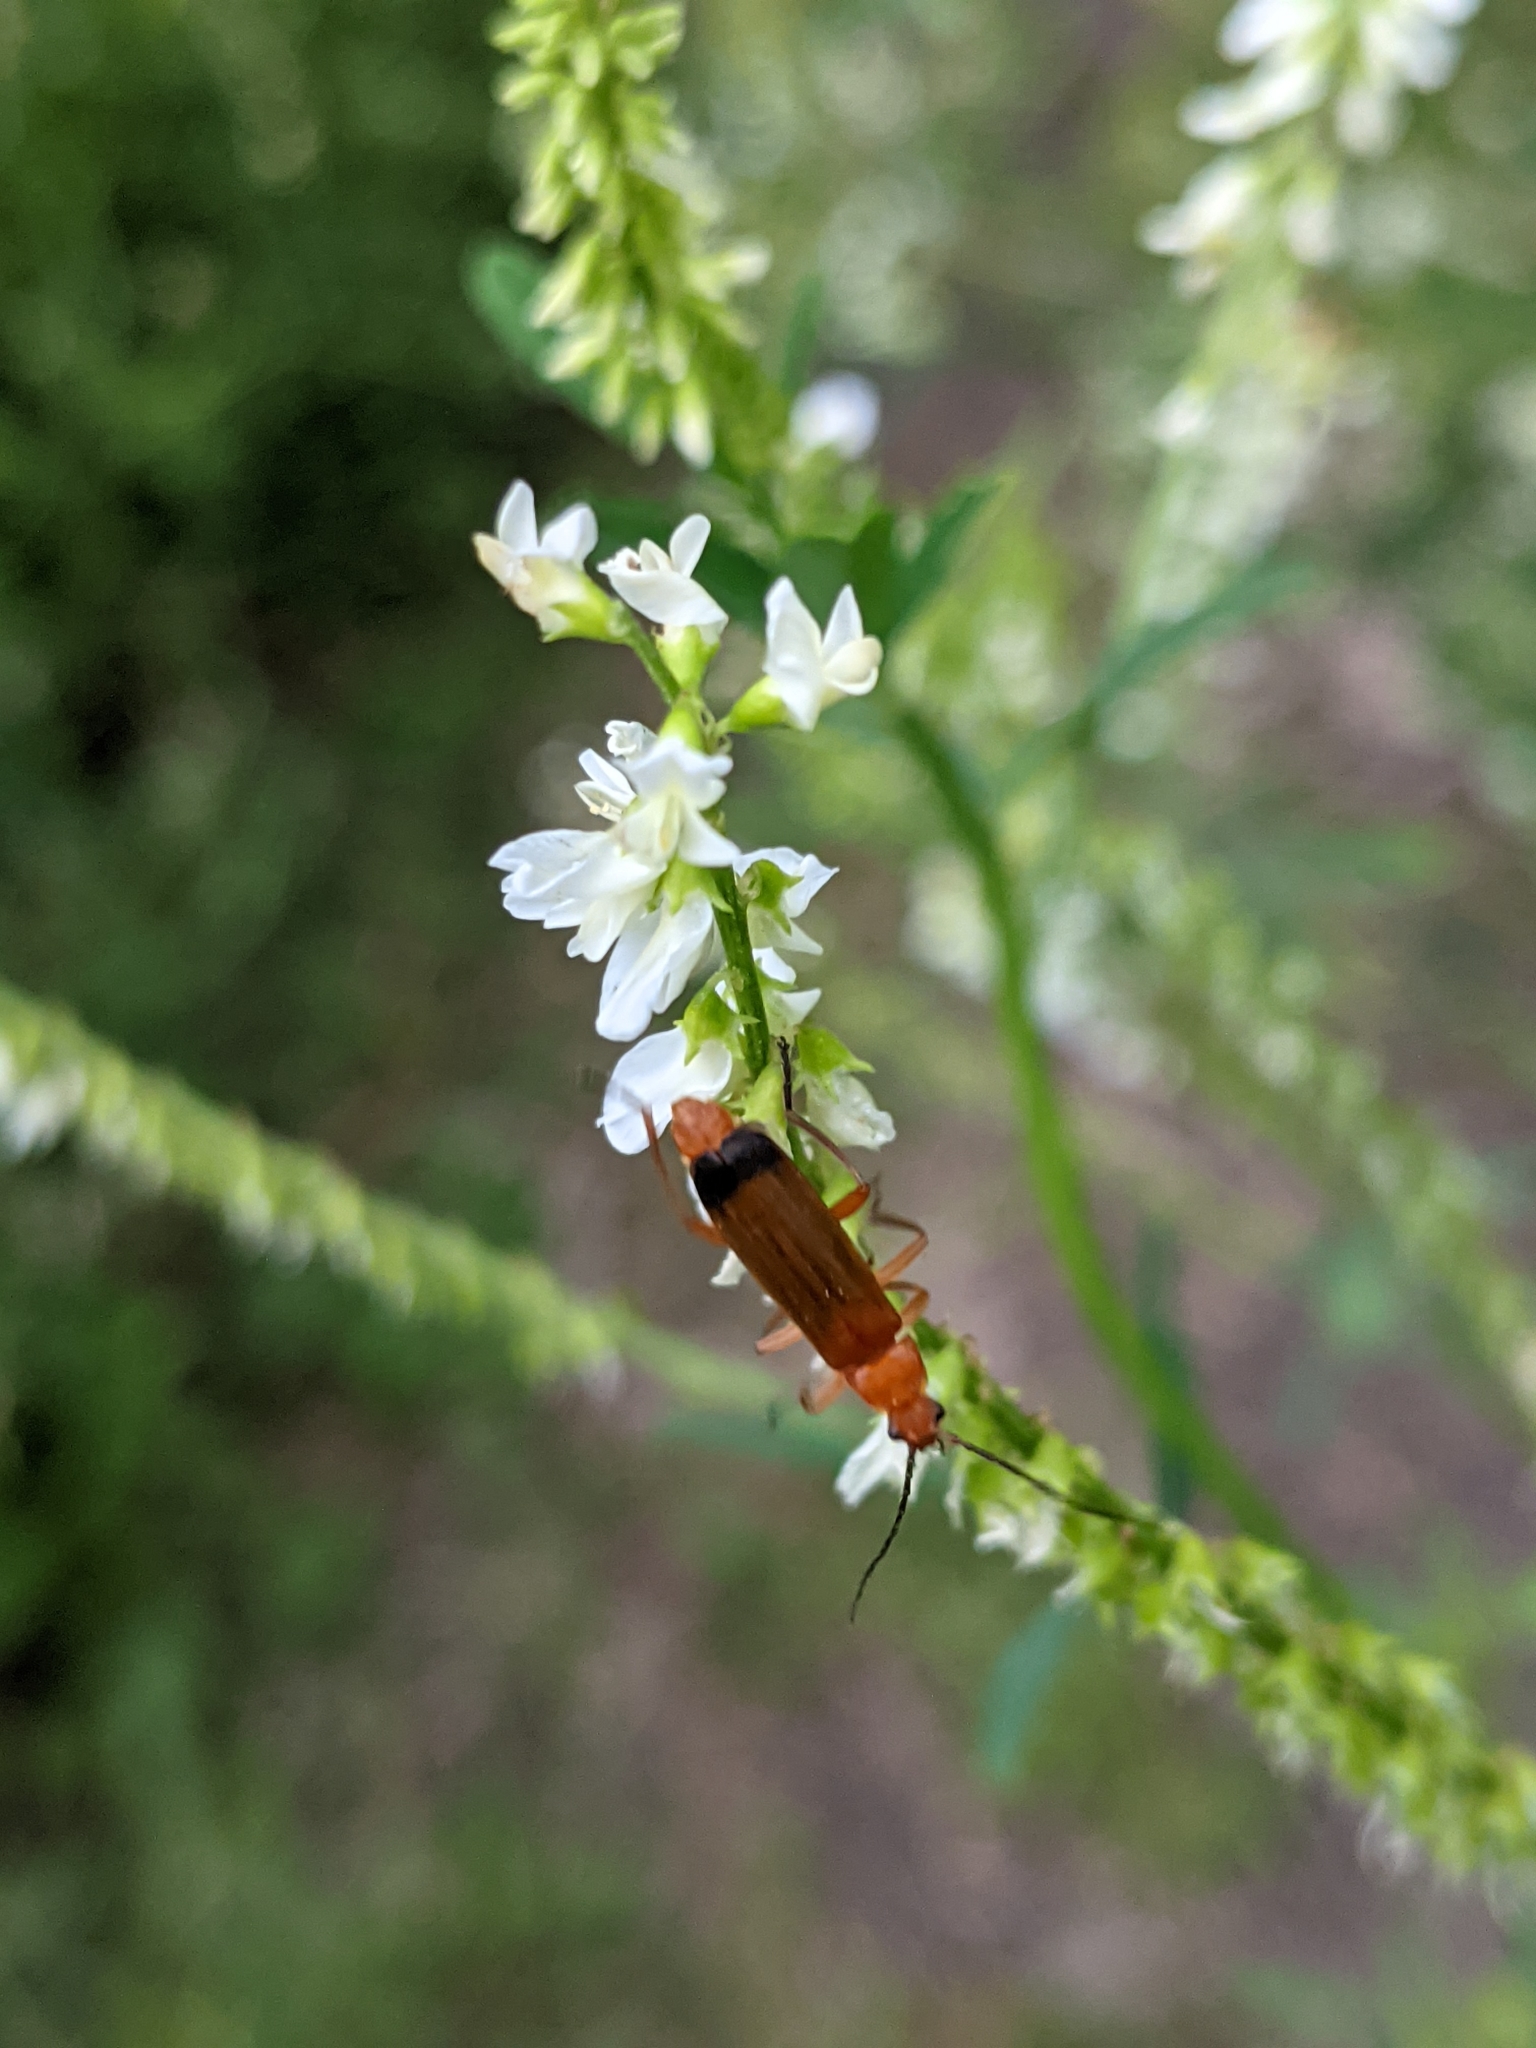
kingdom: Animalia
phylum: Arthropoda
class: Insecta
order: Coleoptera
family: Cantharidae
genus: Rhagonycha
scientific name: Rhagonycha fulva
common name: Common red soldier beetle
